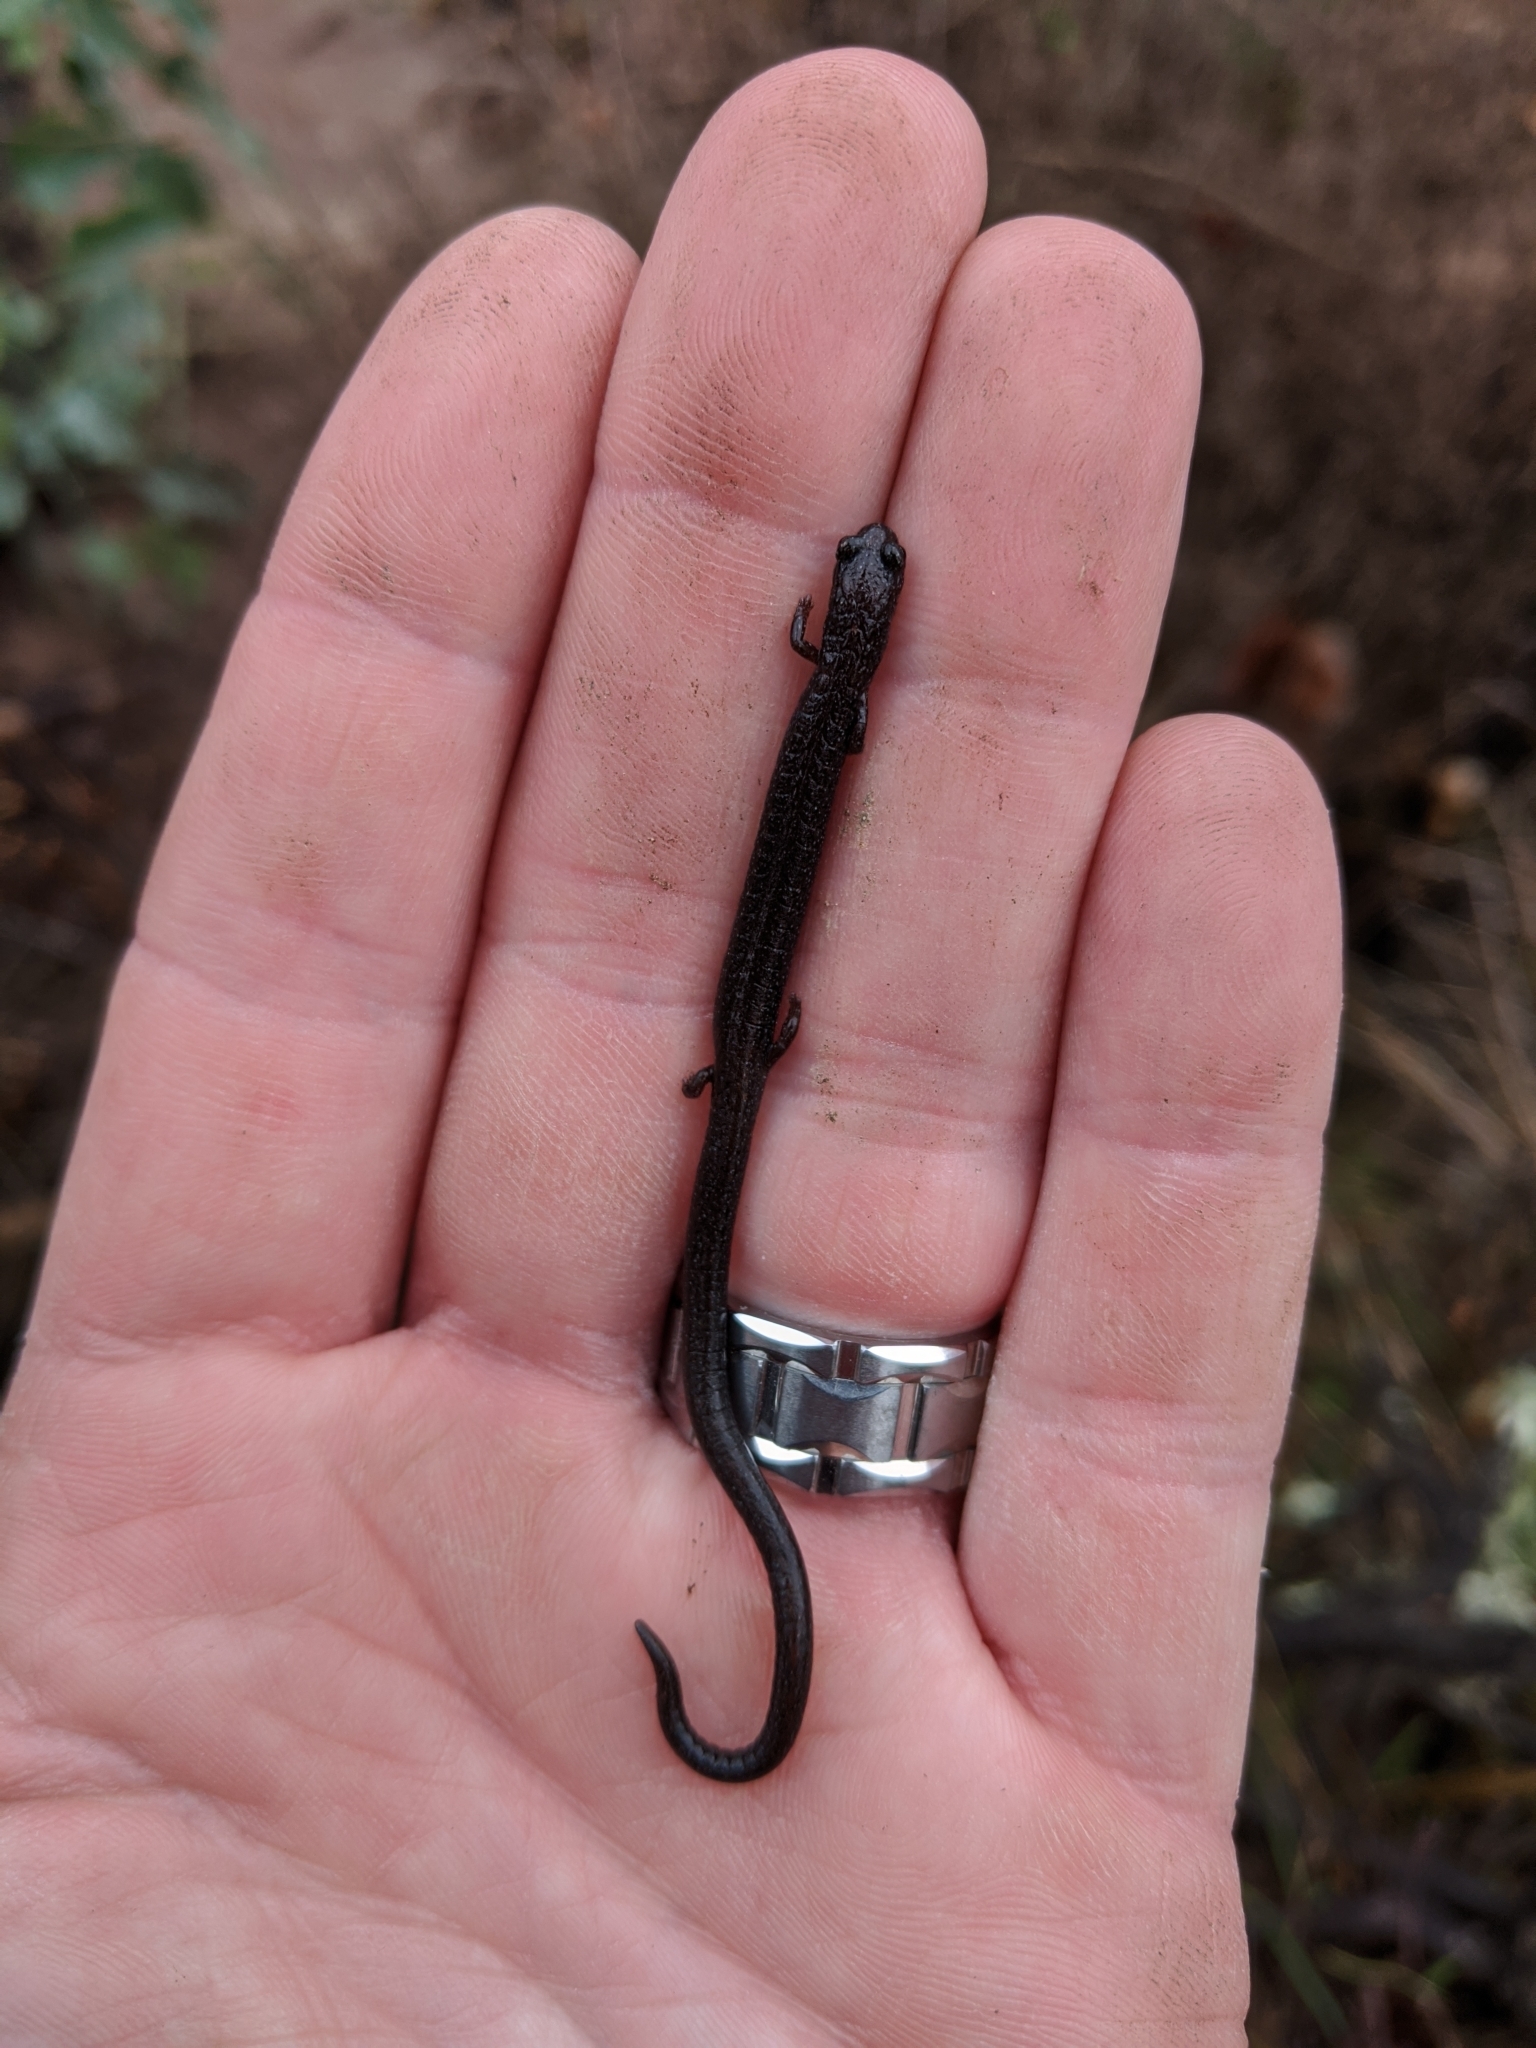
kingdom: Animalia
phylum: Chordata
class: Amphibia
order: Caudata
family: Plethodontidae
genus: Batrachoseps
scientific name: Batrachoseps nigriventris
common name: Black-bellied slender salamander
